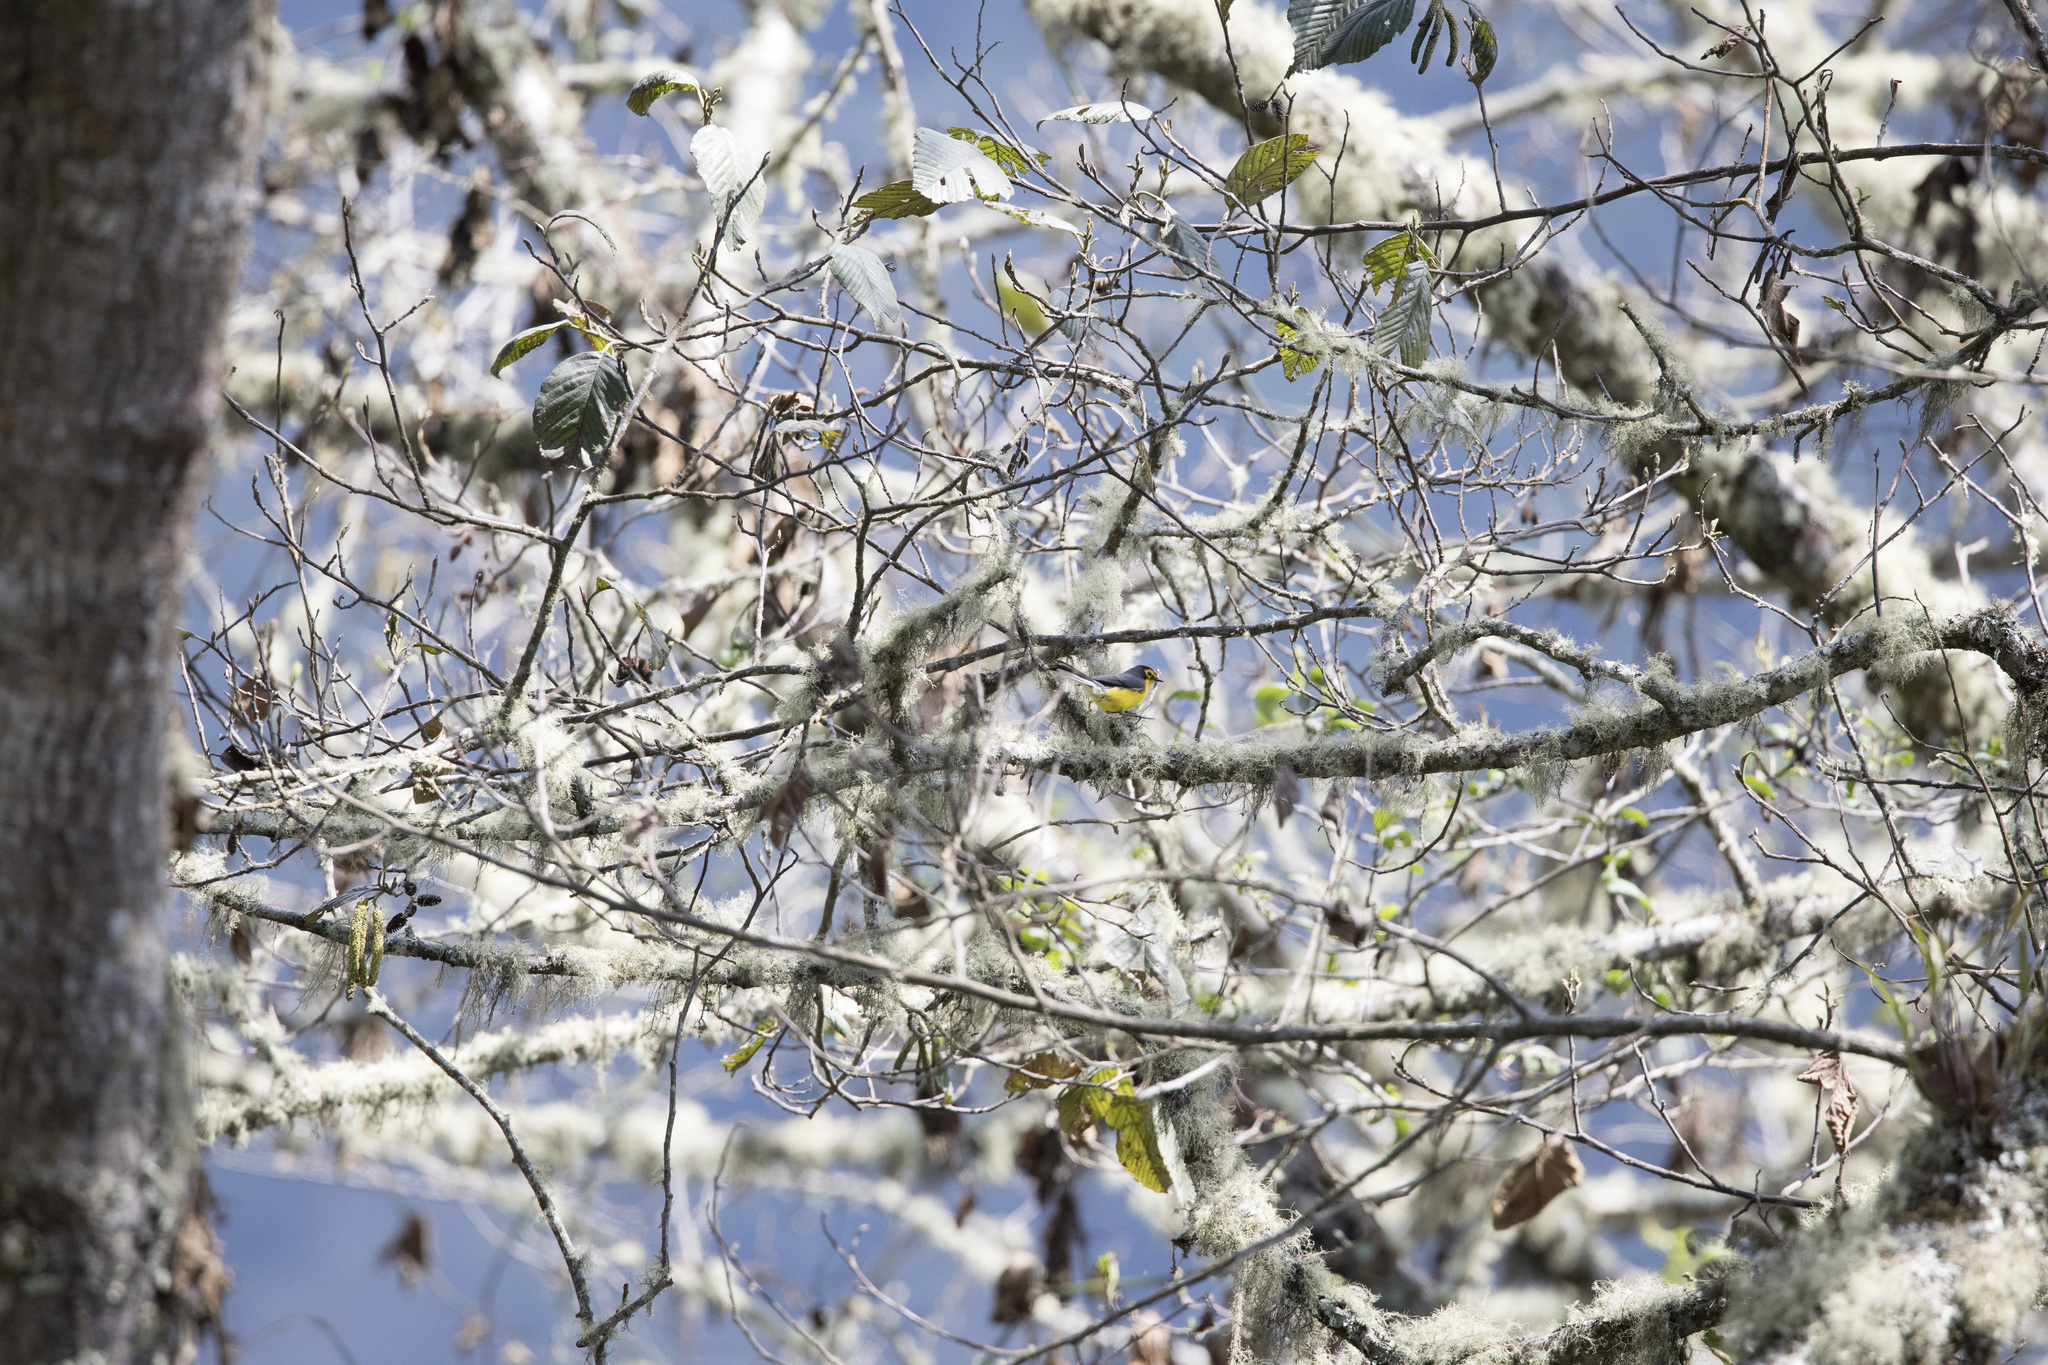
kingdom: Animalia
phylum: Chordata
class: Aves
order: Passeriformes
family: Parulidae
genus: Myioborus
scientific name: Myioborus melanocephalus
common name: Spectacled whitestart
